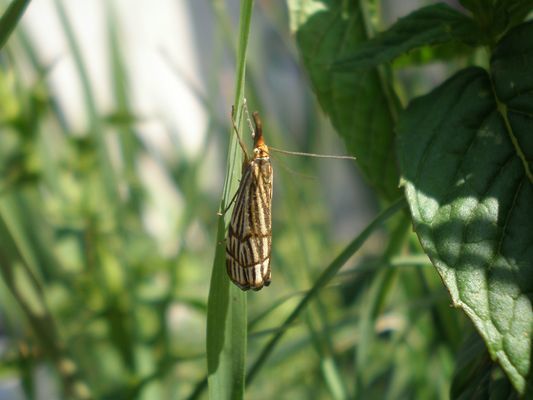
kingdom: Animalia
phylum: Arthropoda
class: Insecta
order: Lepidoptera
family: Crambidae
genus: Chrysocrambus
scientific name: Chrysocrambus Chrysocramboides craterellus
